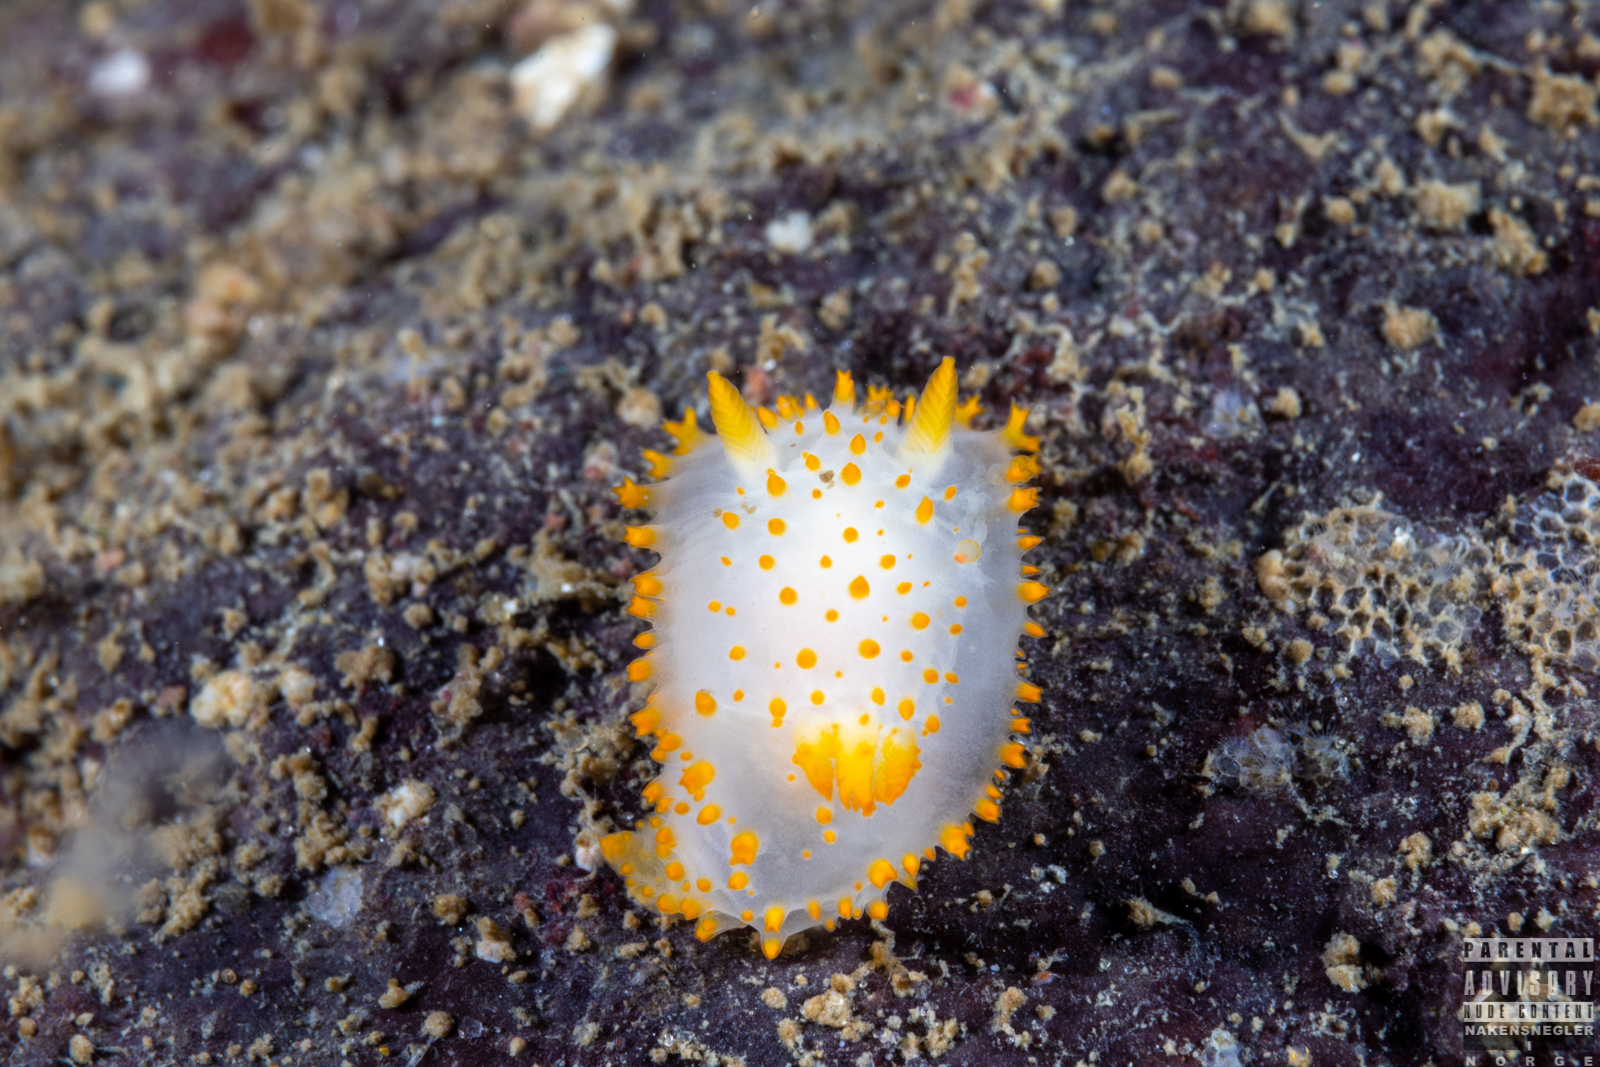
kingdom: Animalia
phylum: Mollusca
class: Gastropoda
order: Nudibranchia
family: Polyceridae
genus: Crimora
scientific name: Crimora papillata
